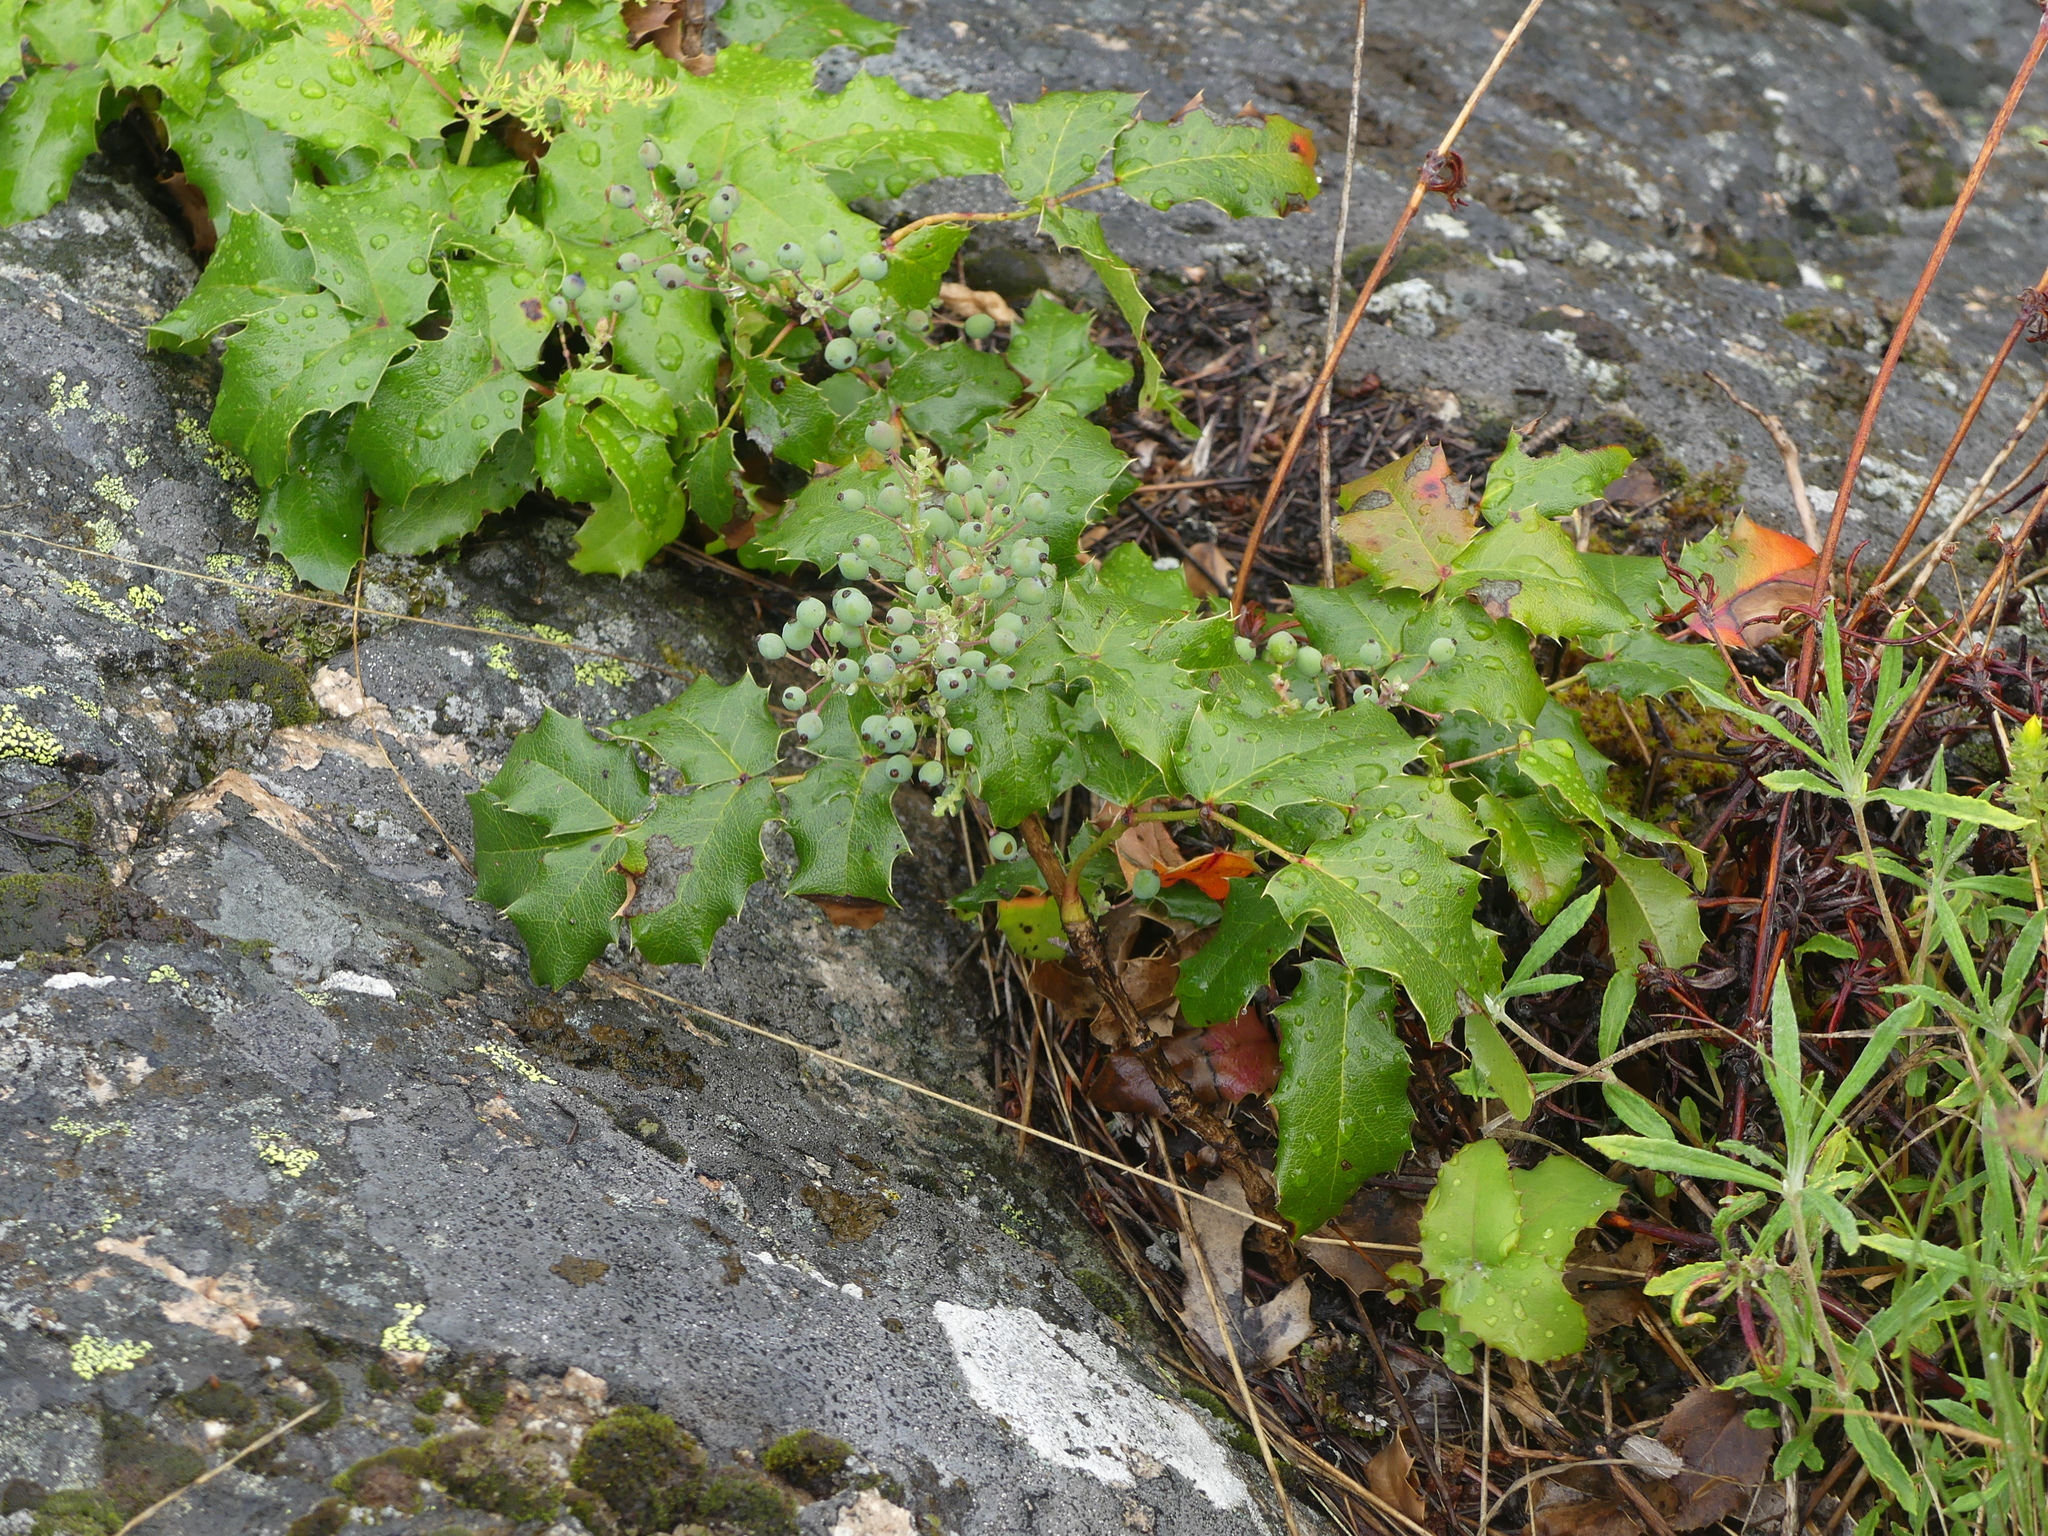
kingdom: Plantae
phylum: Tracheophyta
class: Magnoliopsida
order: Ranunculales
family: Berberidaceae
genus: Mahonia
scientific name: Mahonia aquifolium
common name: Oregon-grape
